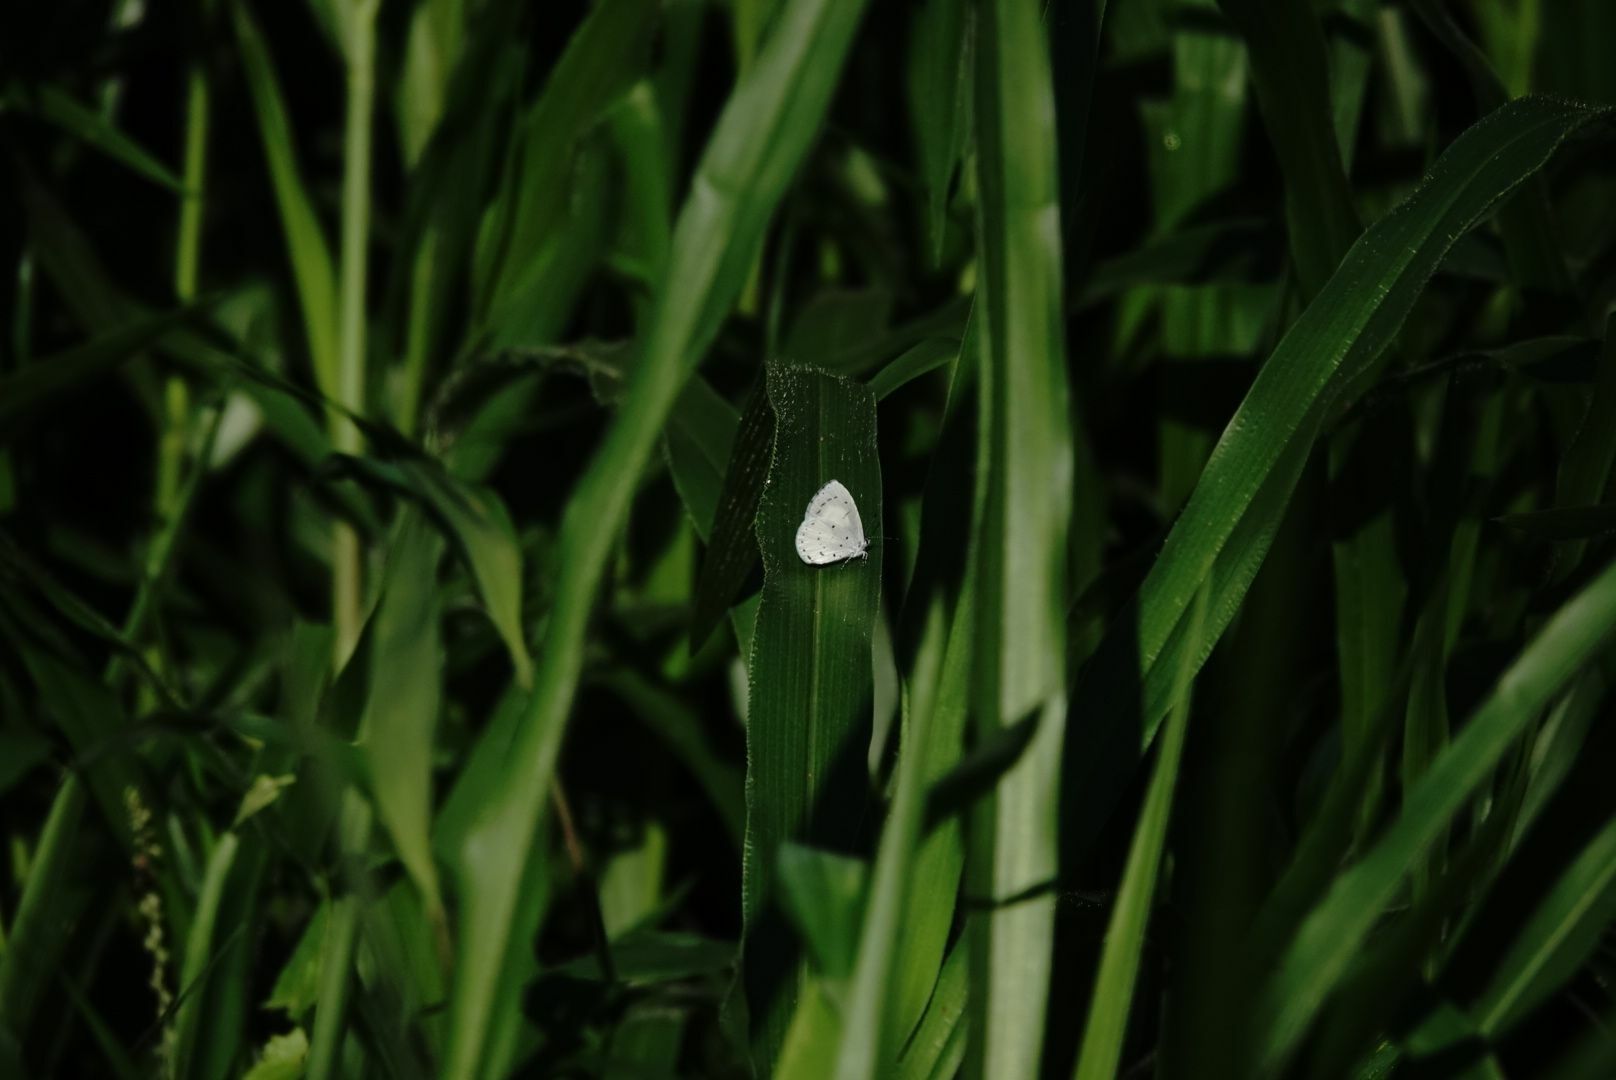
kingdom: Animalia
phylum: Arthropoda
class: Insecta
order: Lepidoptera
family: Lycaenidae
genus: Udara
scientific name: Udara akasa
